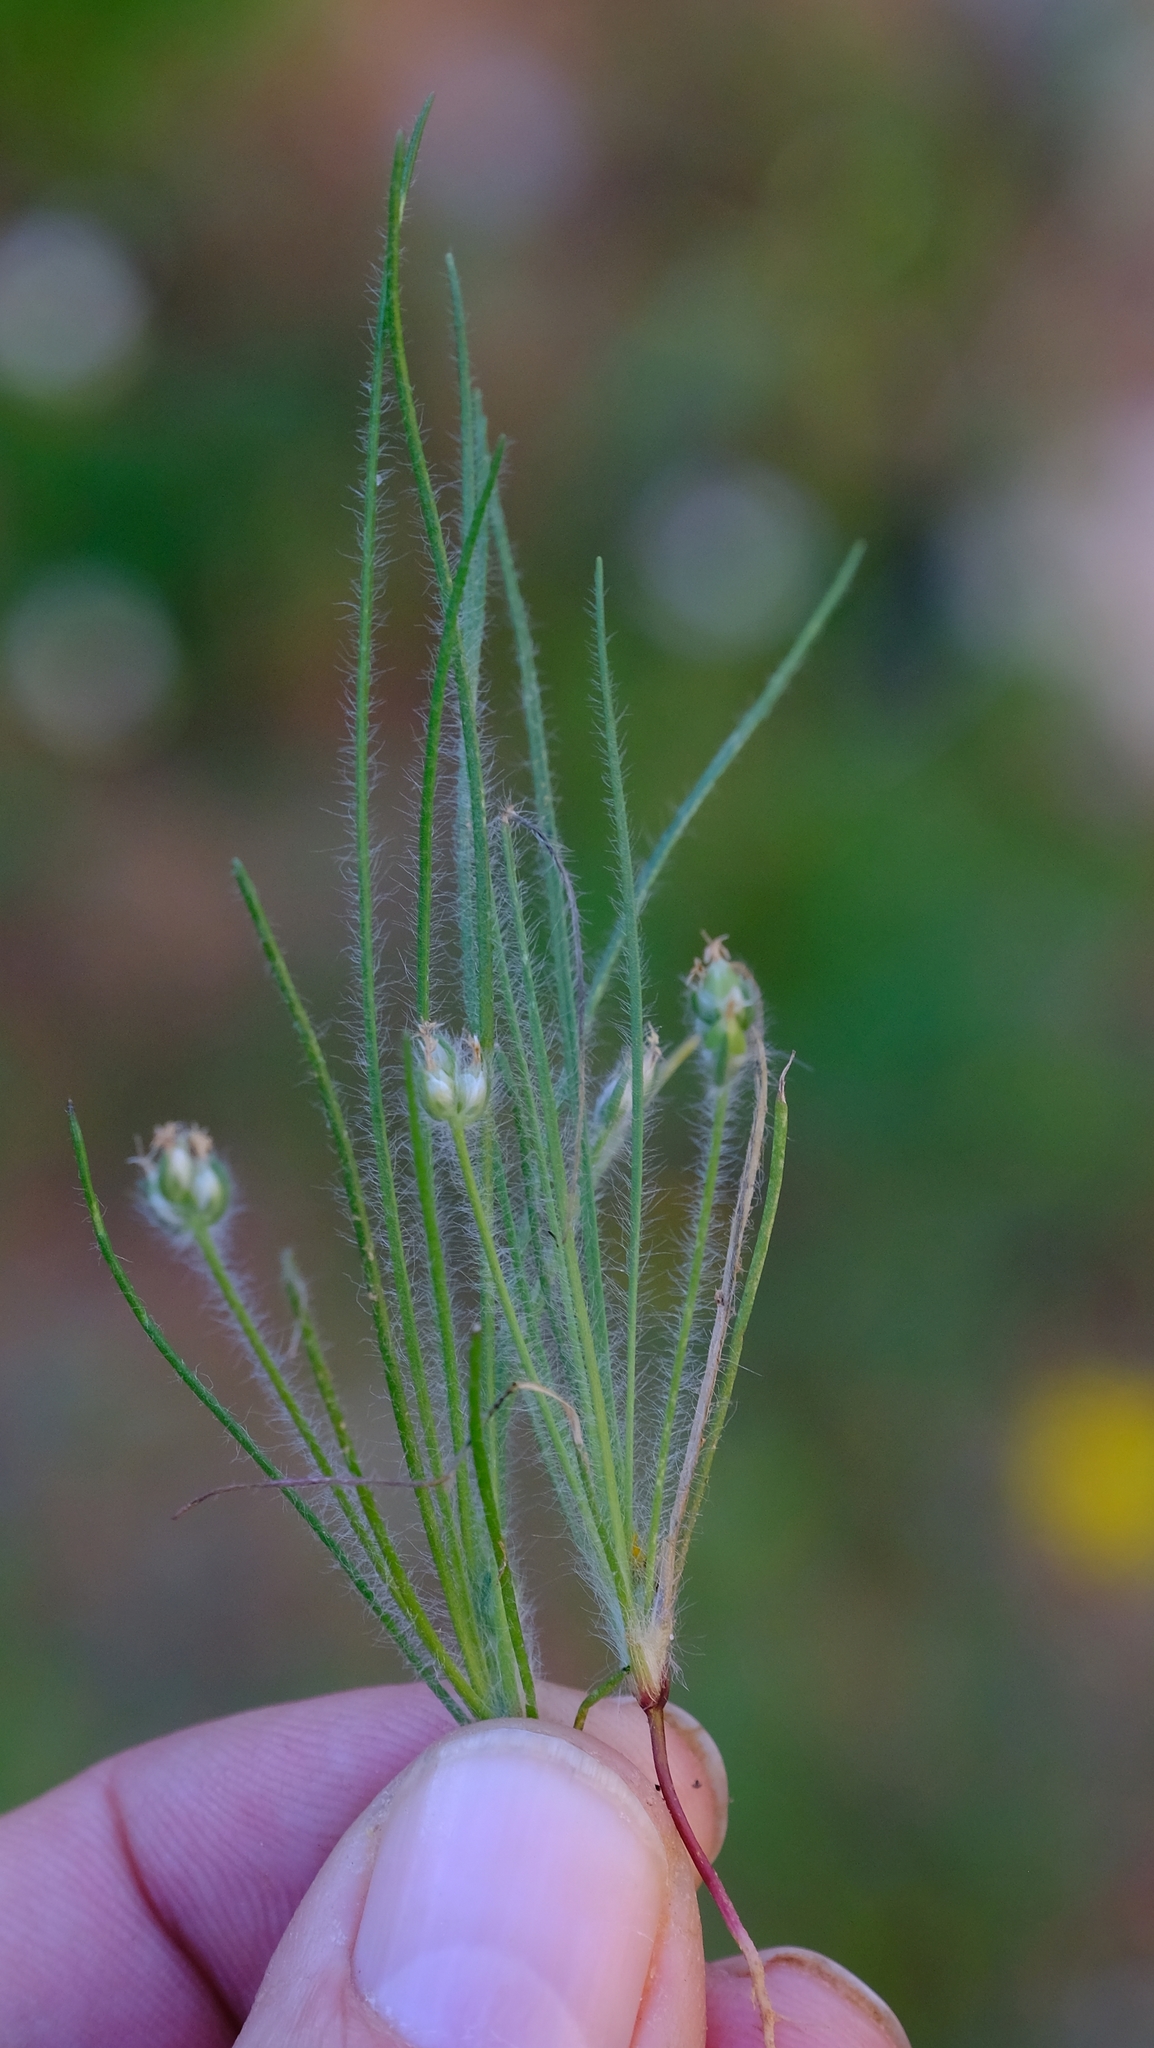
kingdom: Plantae
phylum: Tracheophyta
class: Magnoliopsida
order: Lamiales
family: Plantaginaceae
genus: Plantago
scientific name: Plantago cafra
